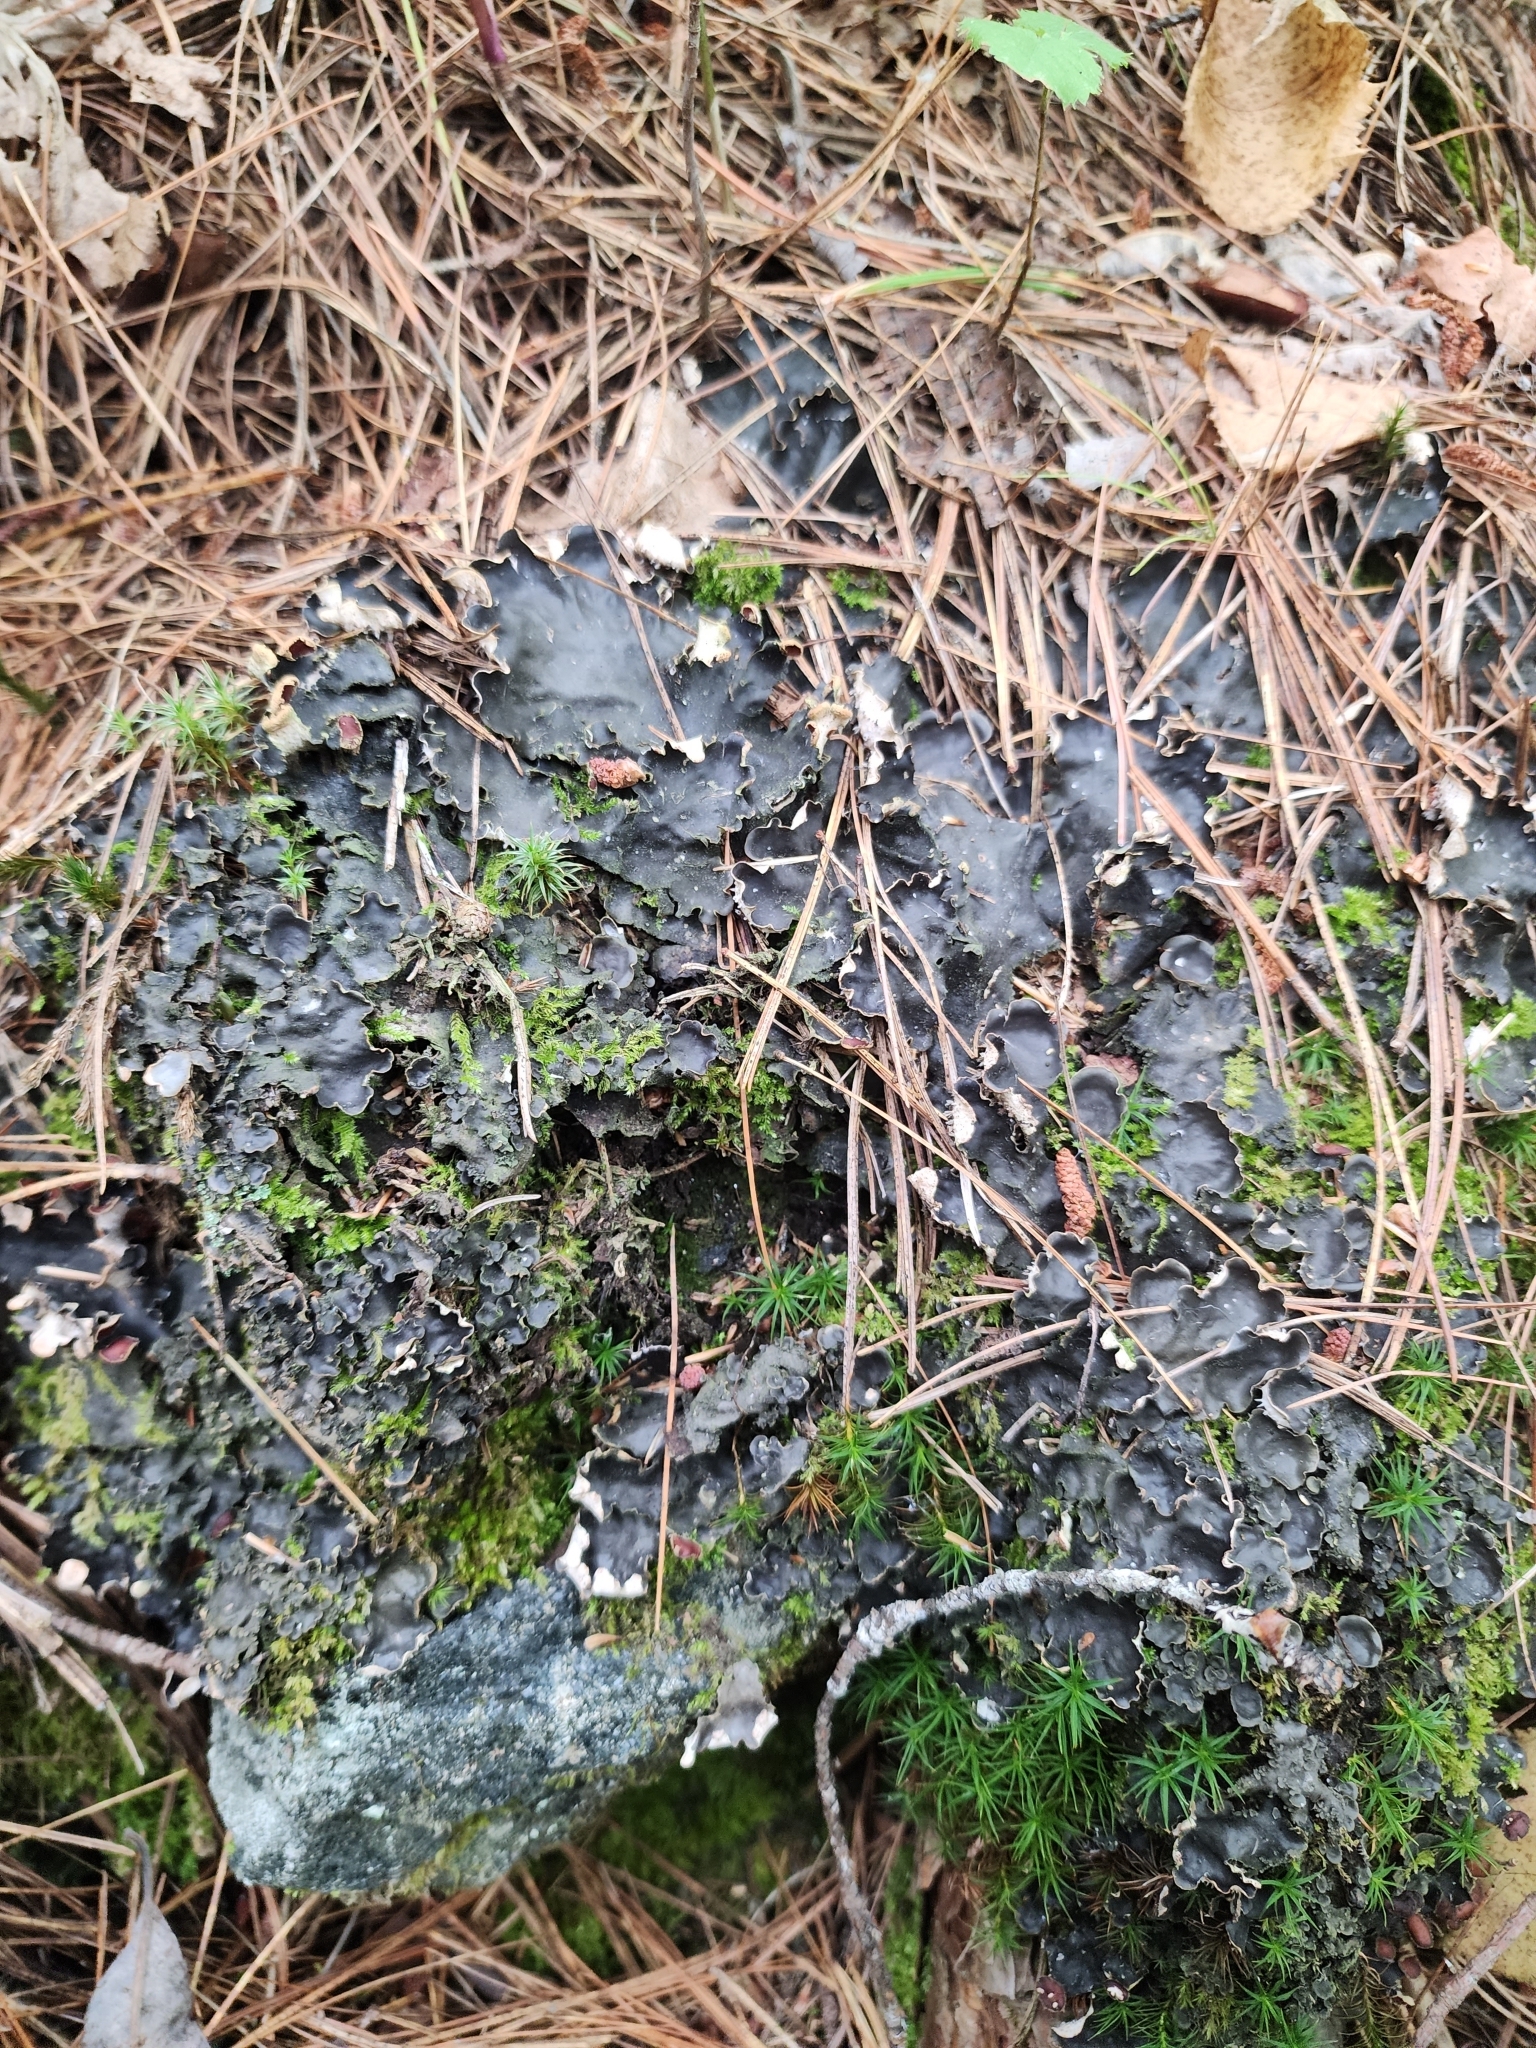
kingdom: Fungi
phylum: Ascomycota
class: Lecanoromycetes
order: Peltigerales
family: Peltigeraceae
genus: Peltigera
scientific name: Peltigera elisabethae
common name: Concentric pelt lichen
